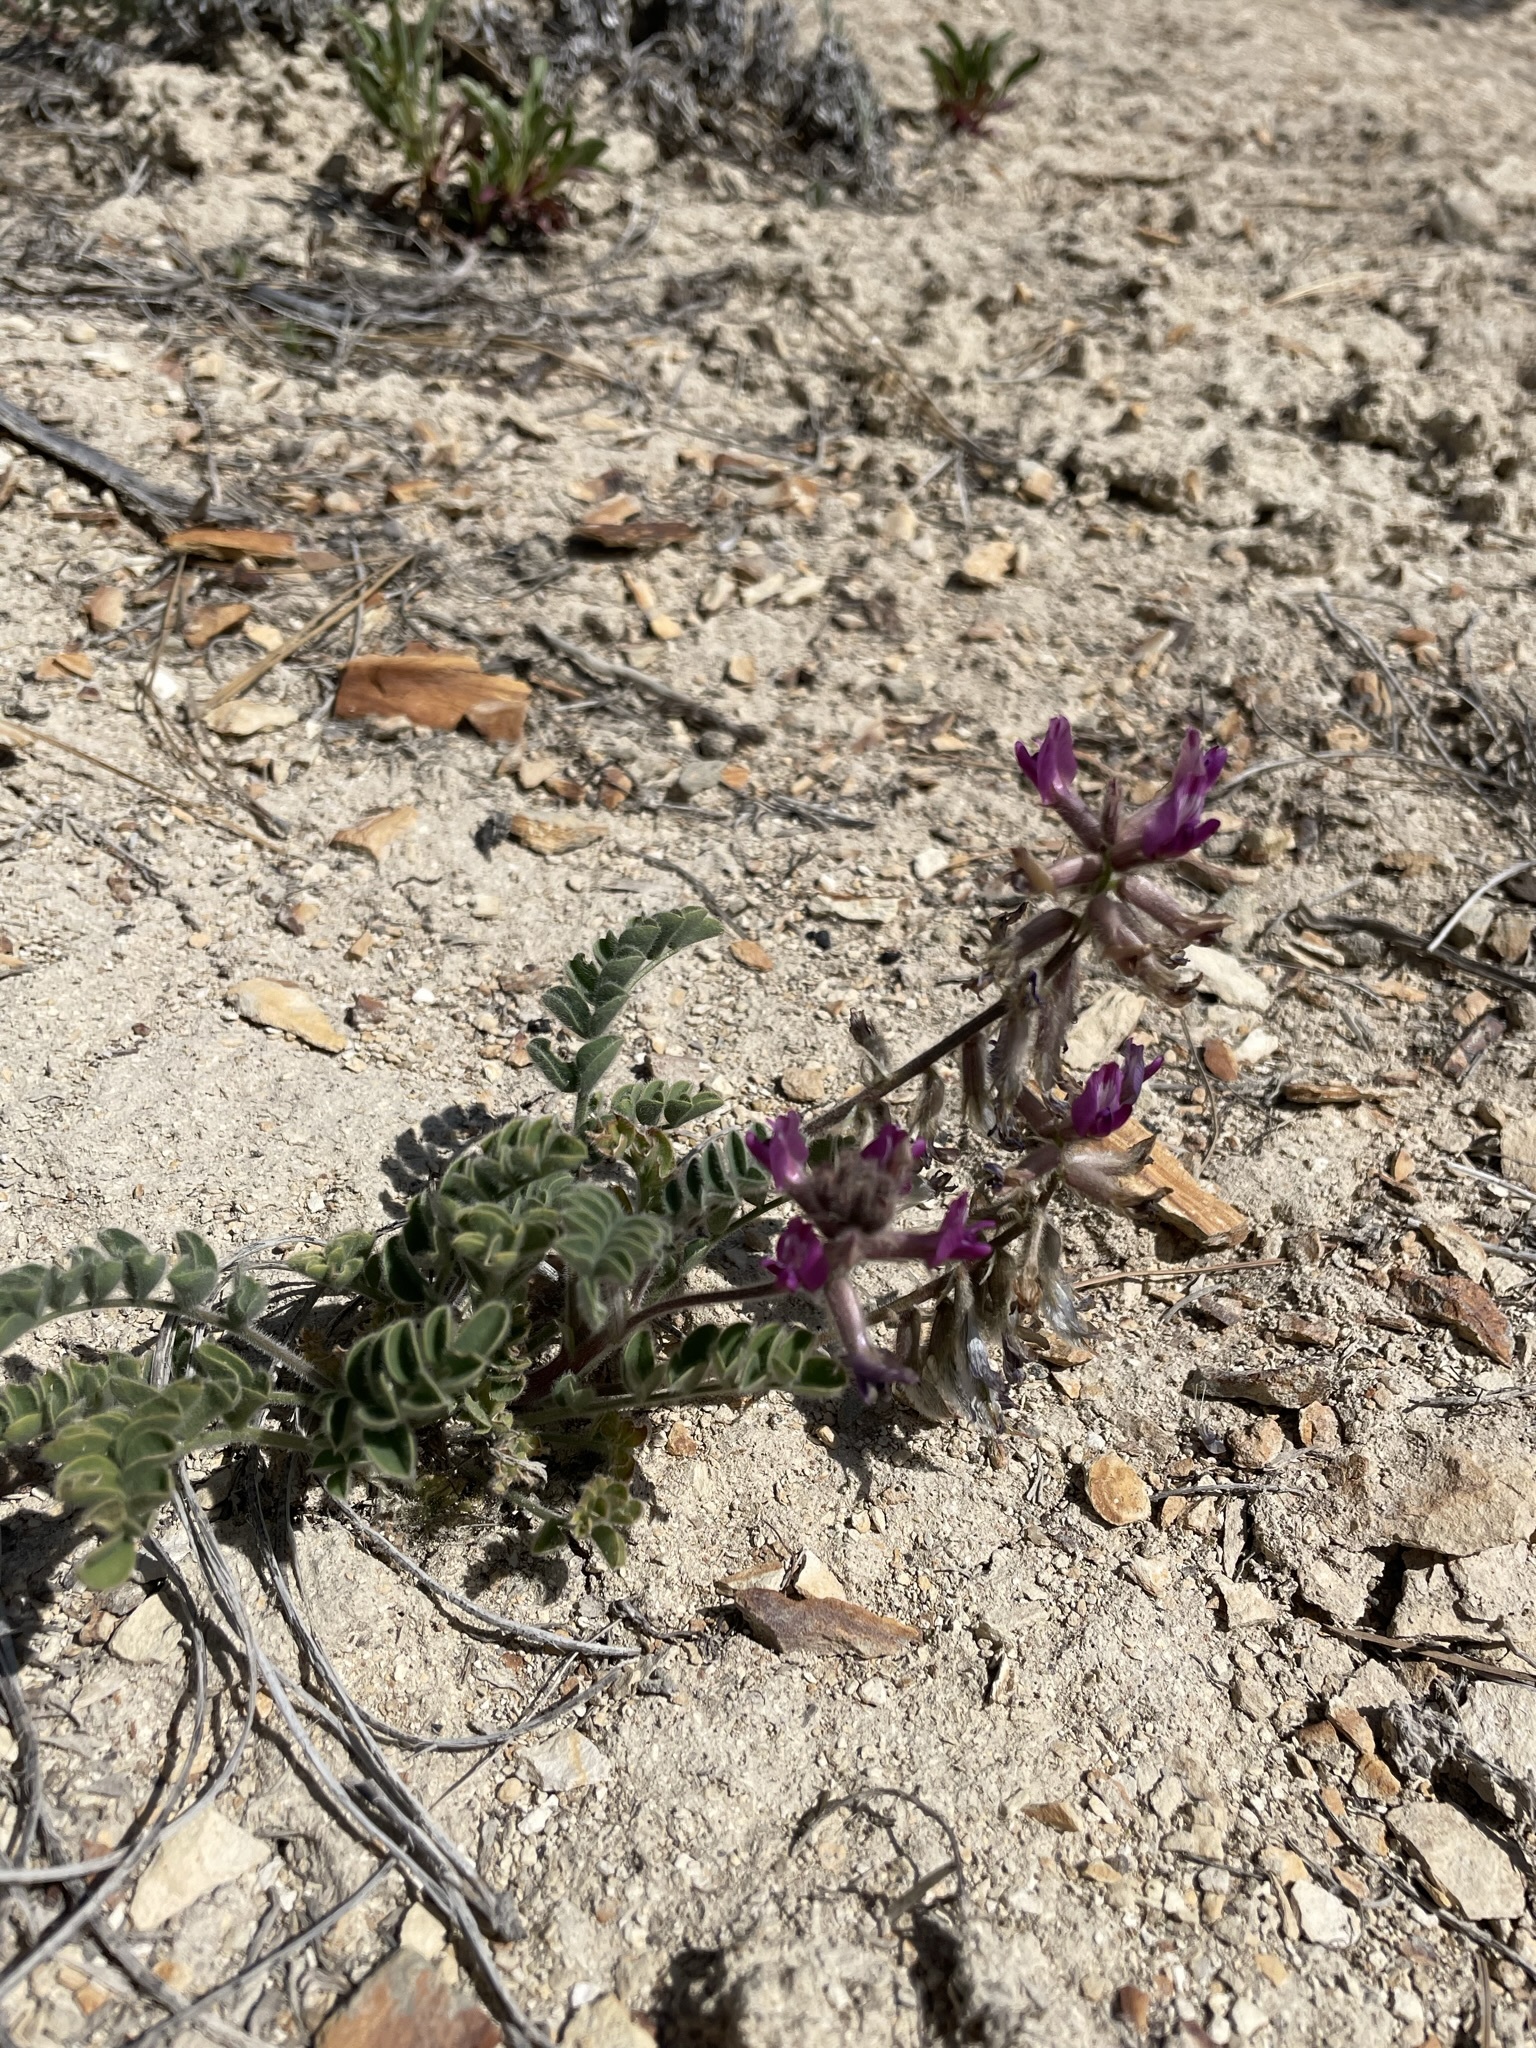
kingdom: Plantae
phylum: Tracheophyta
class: Magnoliopsida
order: Fabales
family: Fabaceae
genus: Astragalus
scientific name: Astragalus malacus
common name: Shaggy milk-vetch
